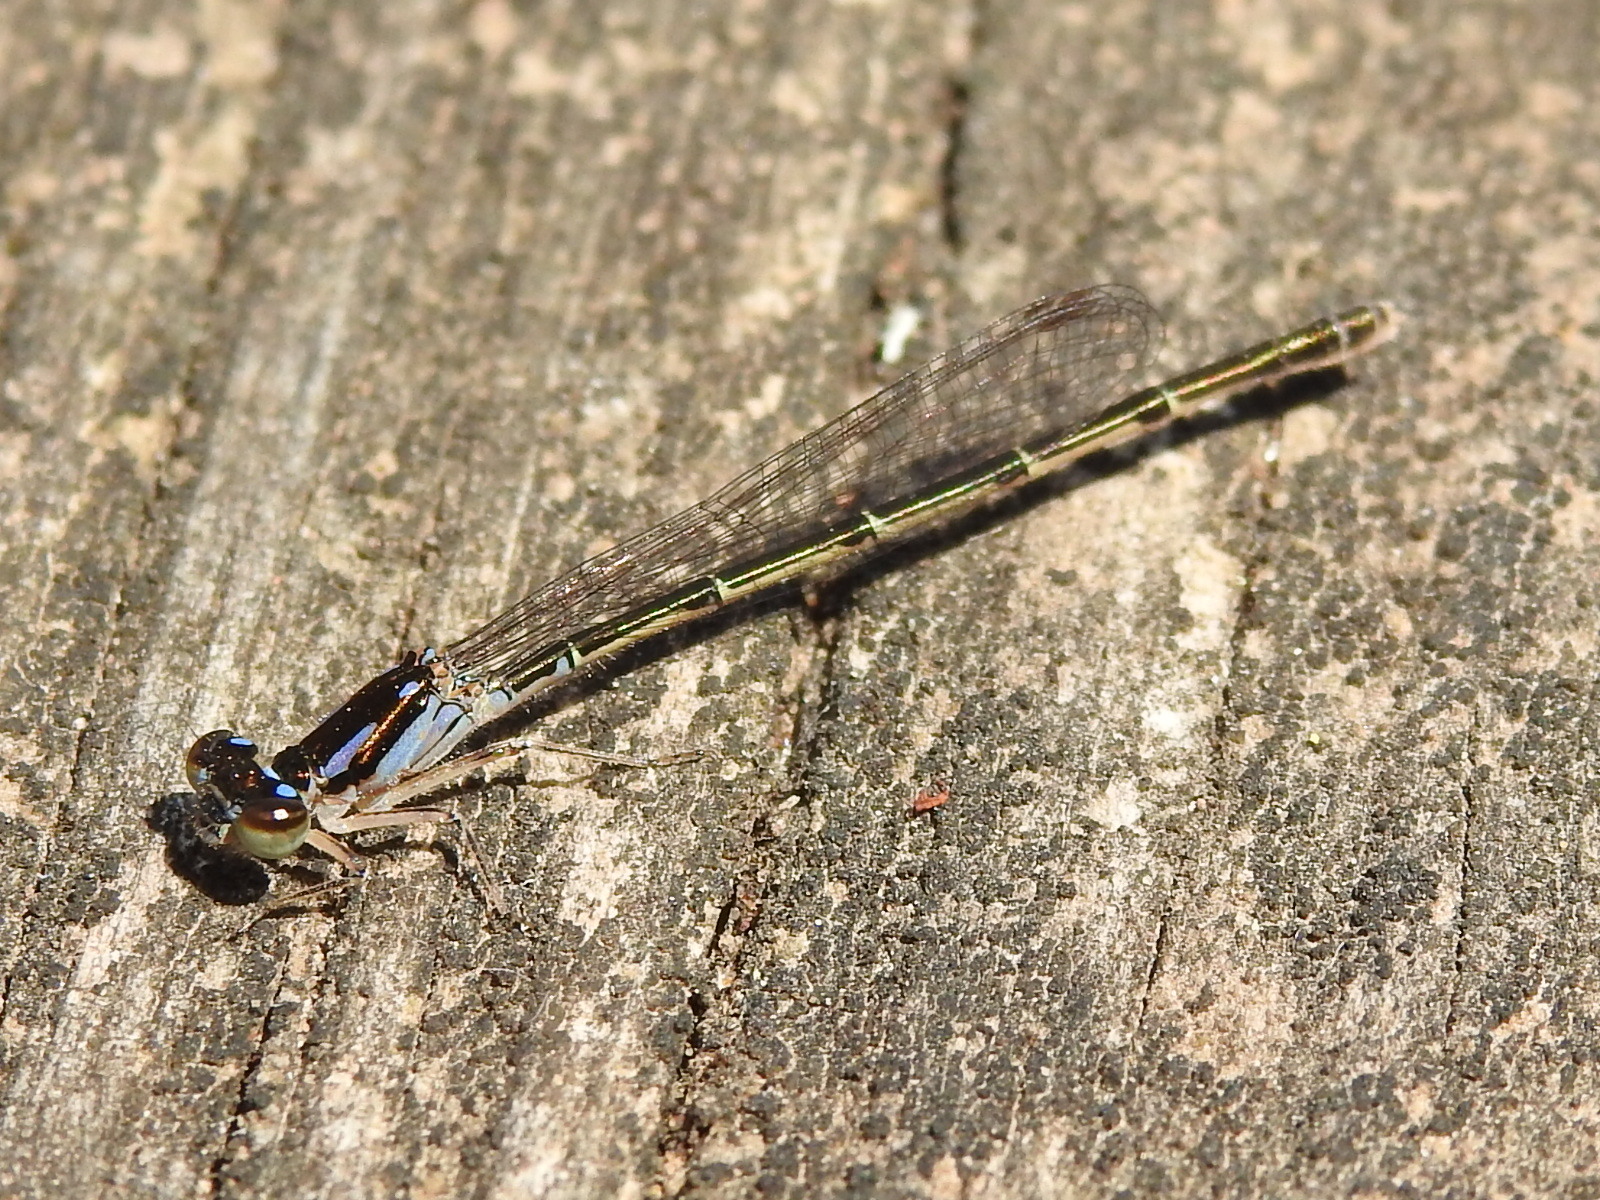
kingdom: Animalia
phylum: Arthropoda
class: Insecta
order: Odonata
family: Coenagrionidae
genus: Ischnura
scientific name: Ischnura posita
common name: Fragile forktail
